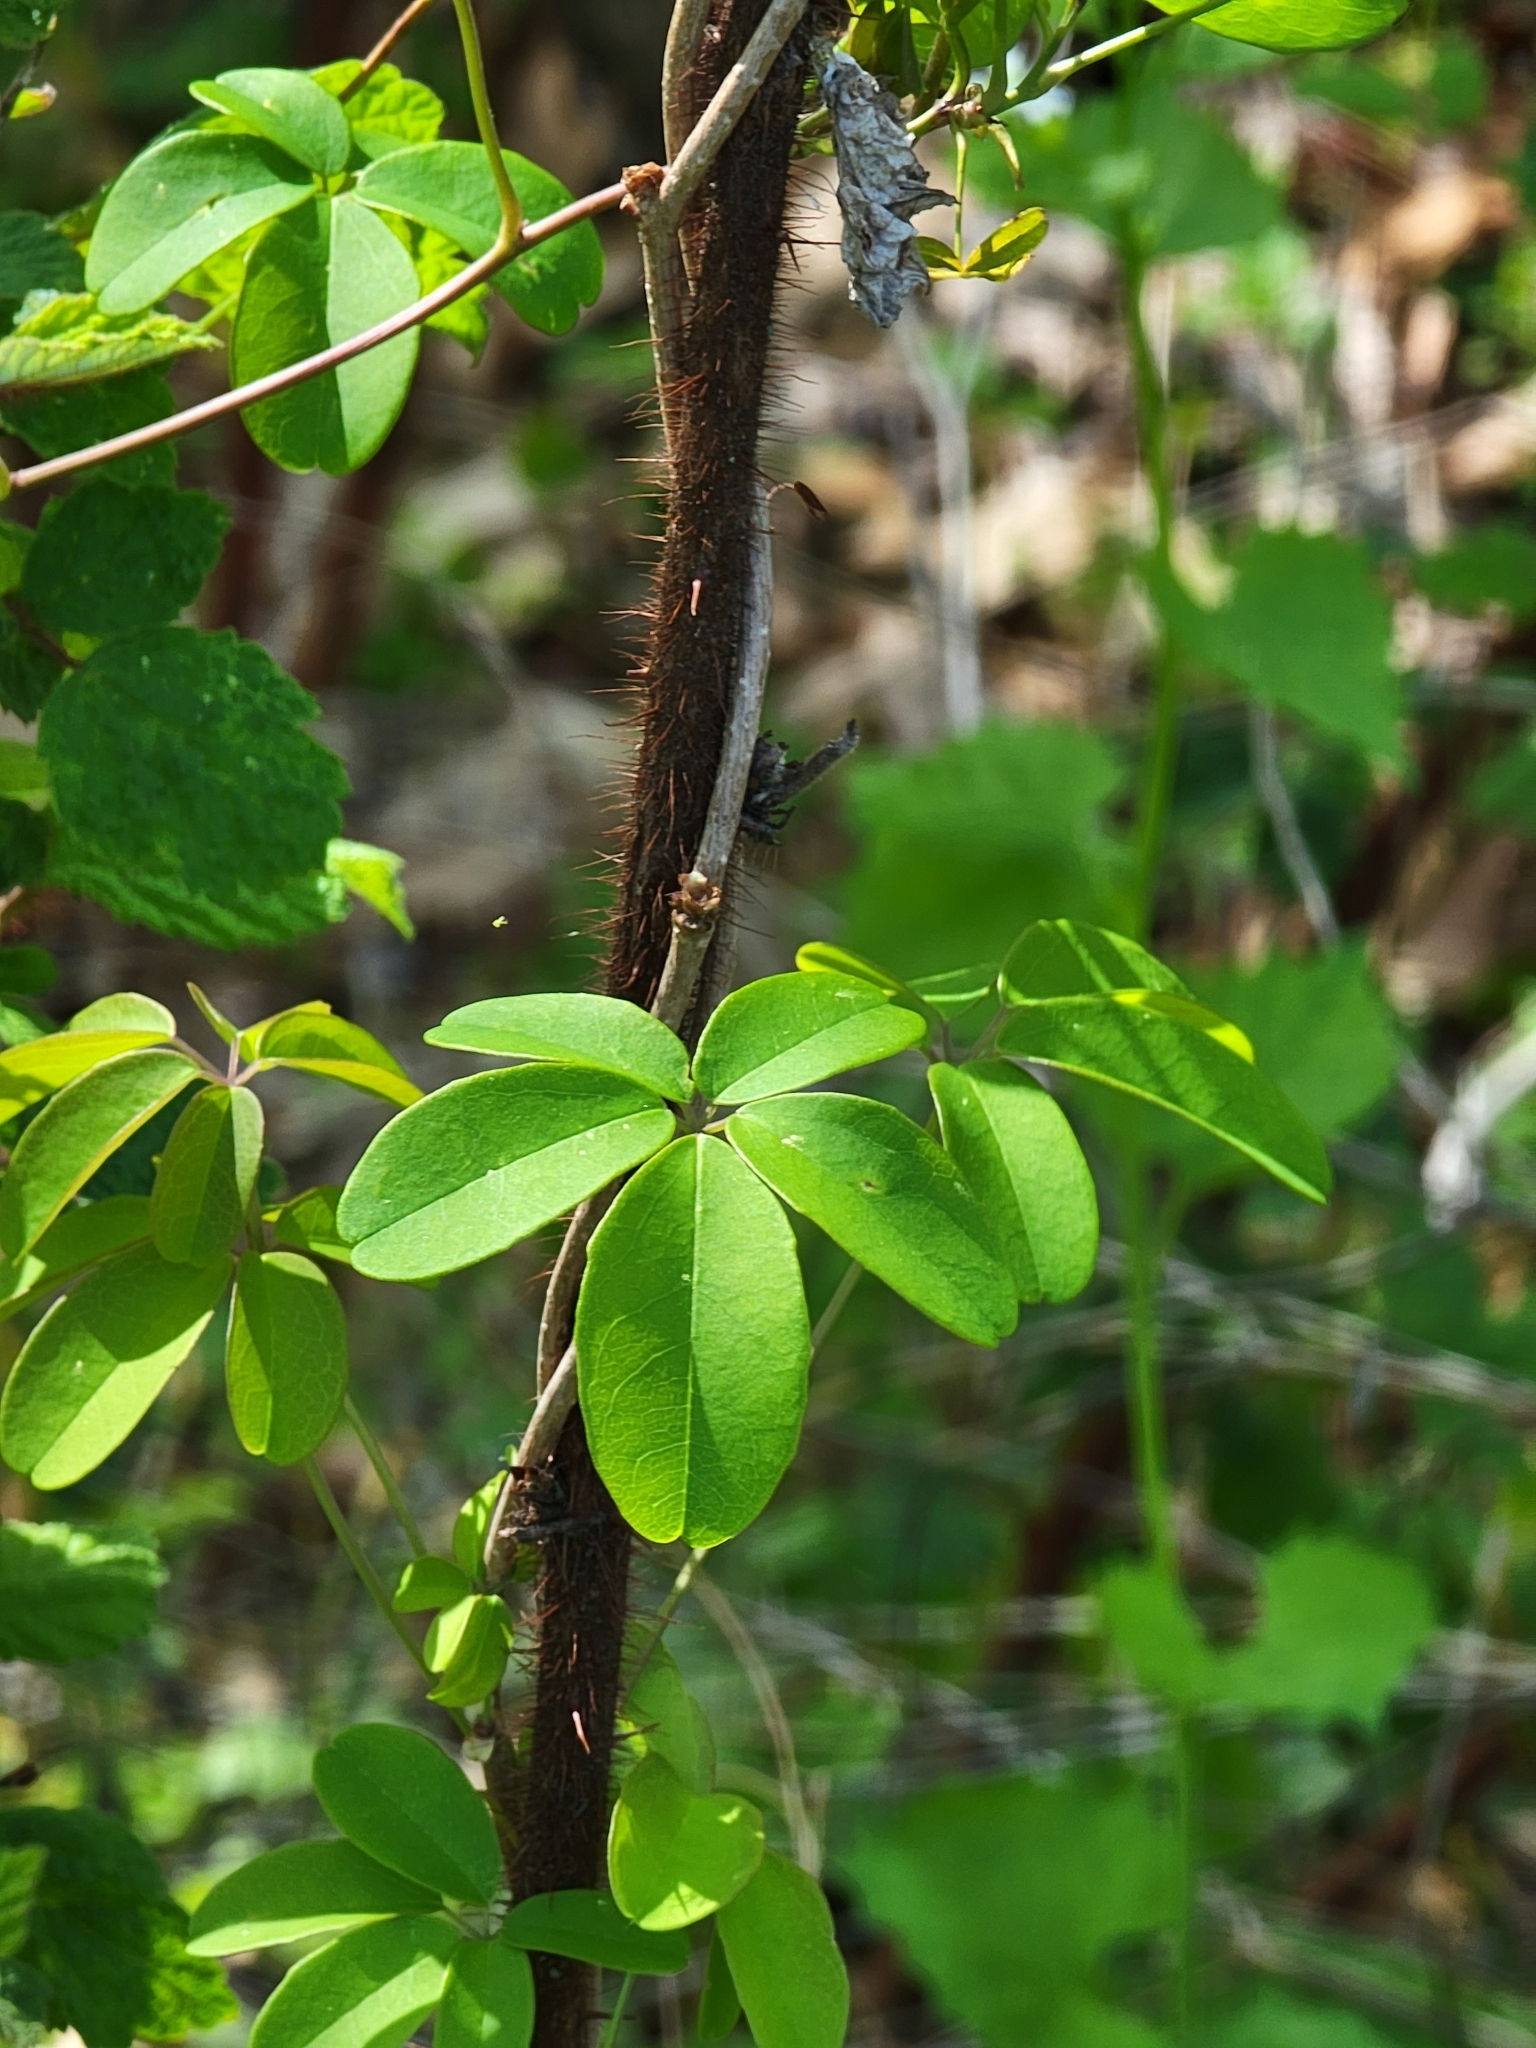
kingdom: Plantae
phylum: Tracheophyta
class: Magnoliopsida
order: Ranunculales
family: Lardizabalaceae
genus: Akebia
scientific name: Akebia quinata
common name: Five-leaf akebia
